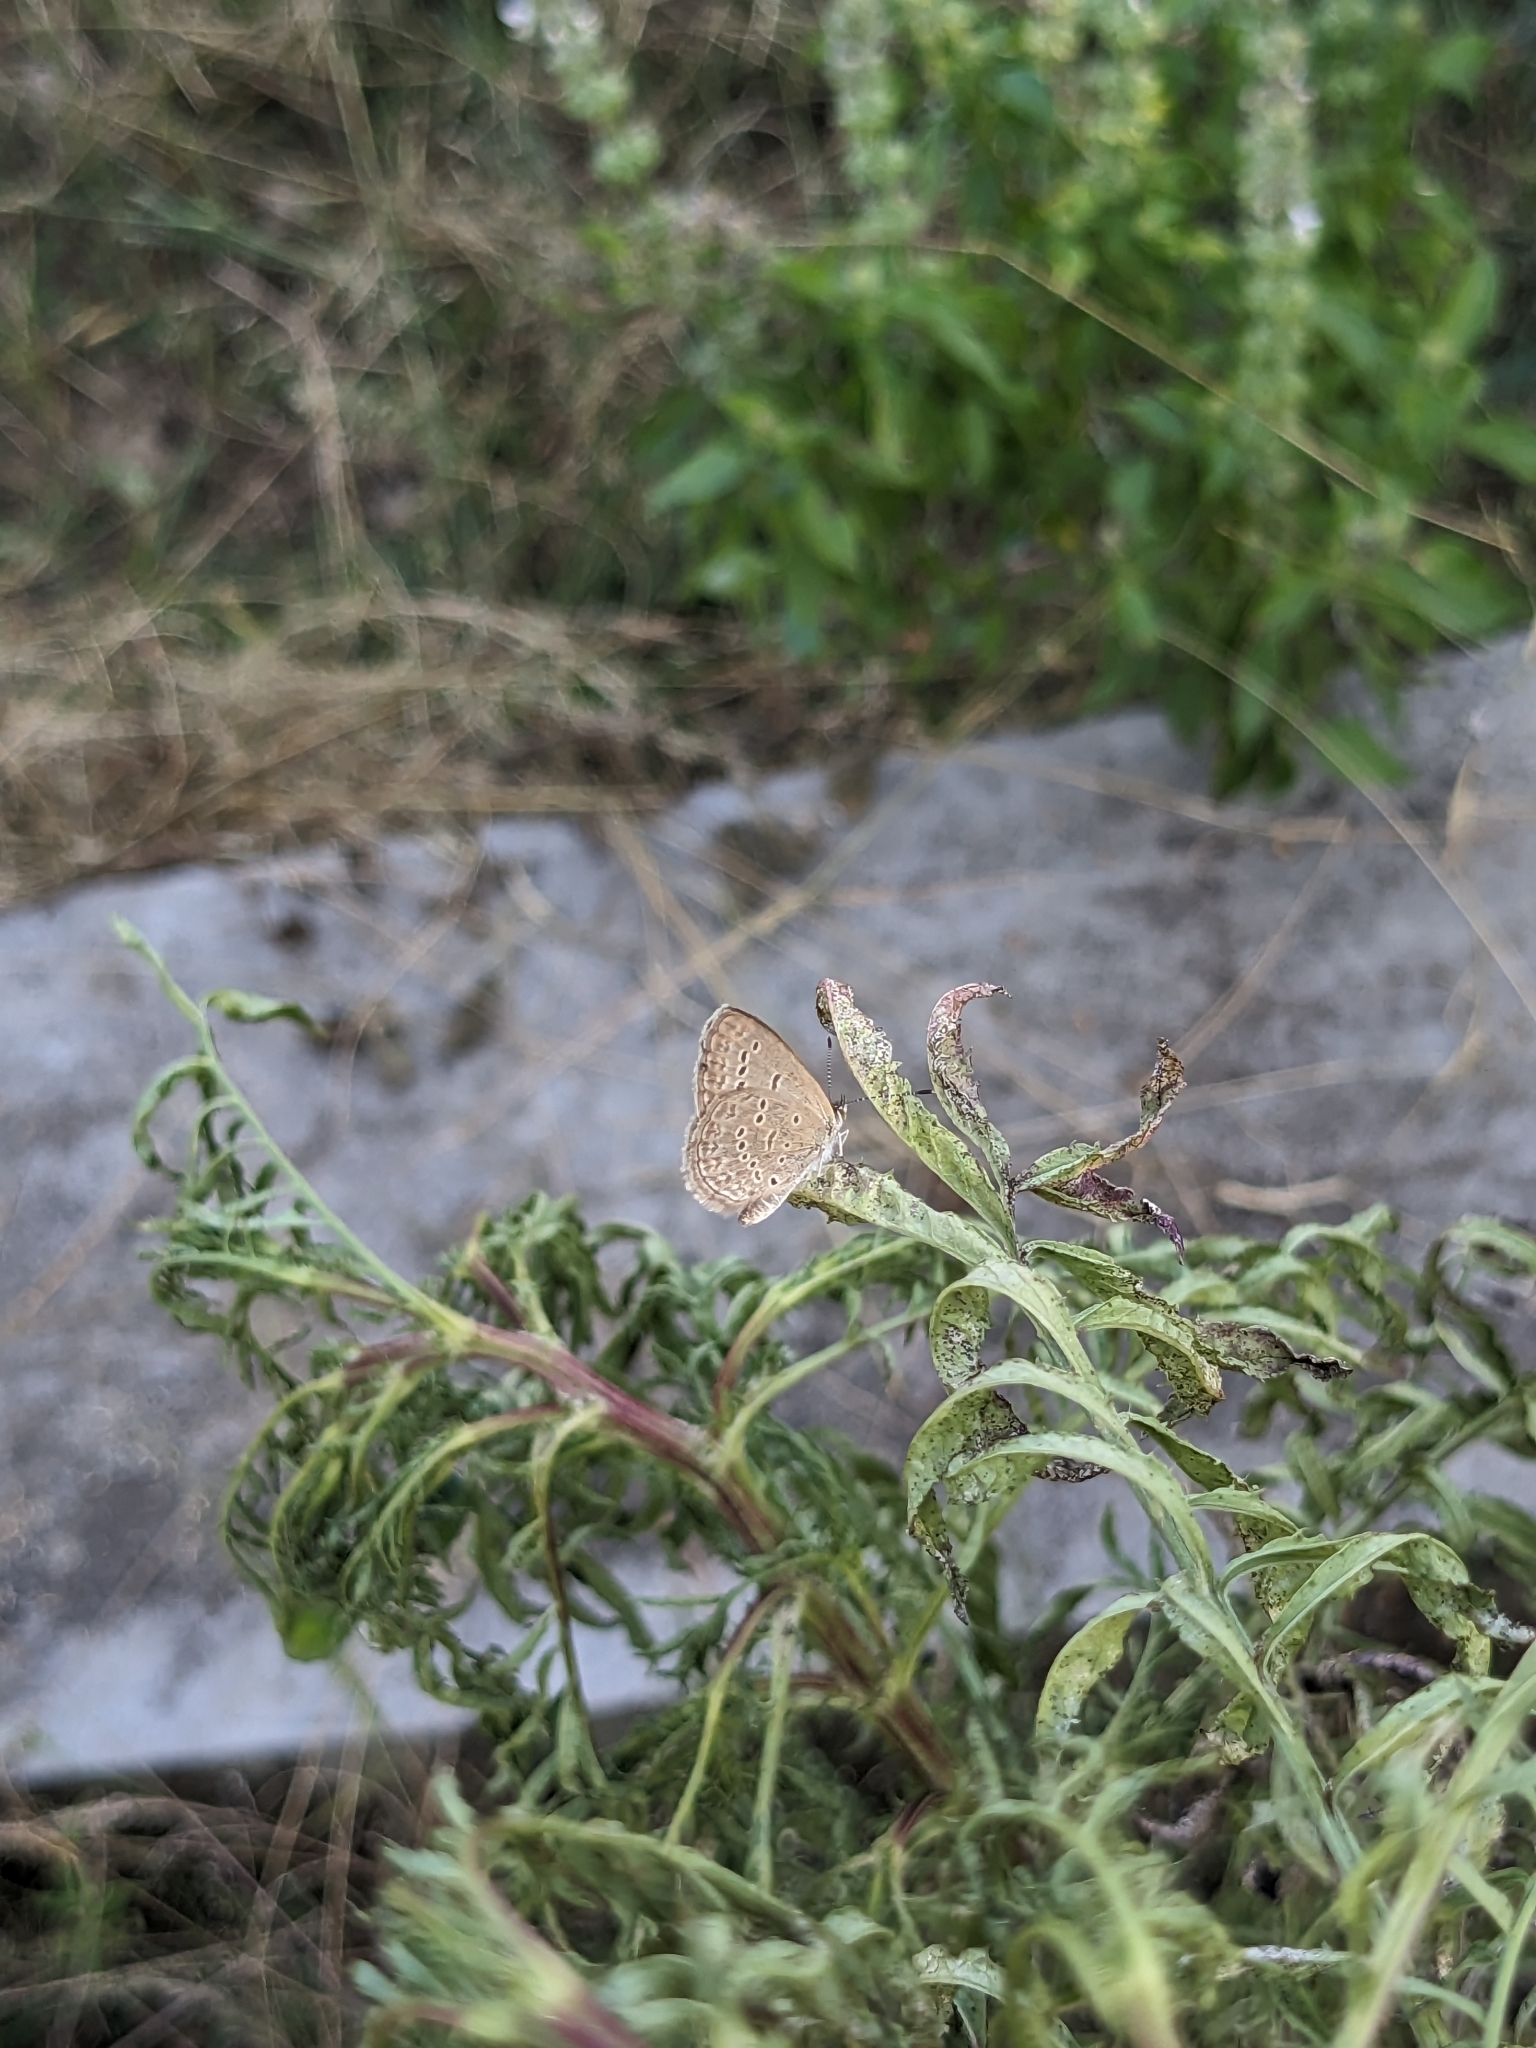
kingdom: Animalia
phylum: Arthropoda
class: Insecta
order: Lepidoptera
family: Lycaenidae
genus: Zizina
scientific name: Zizina otis
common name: Lesser grass blue
